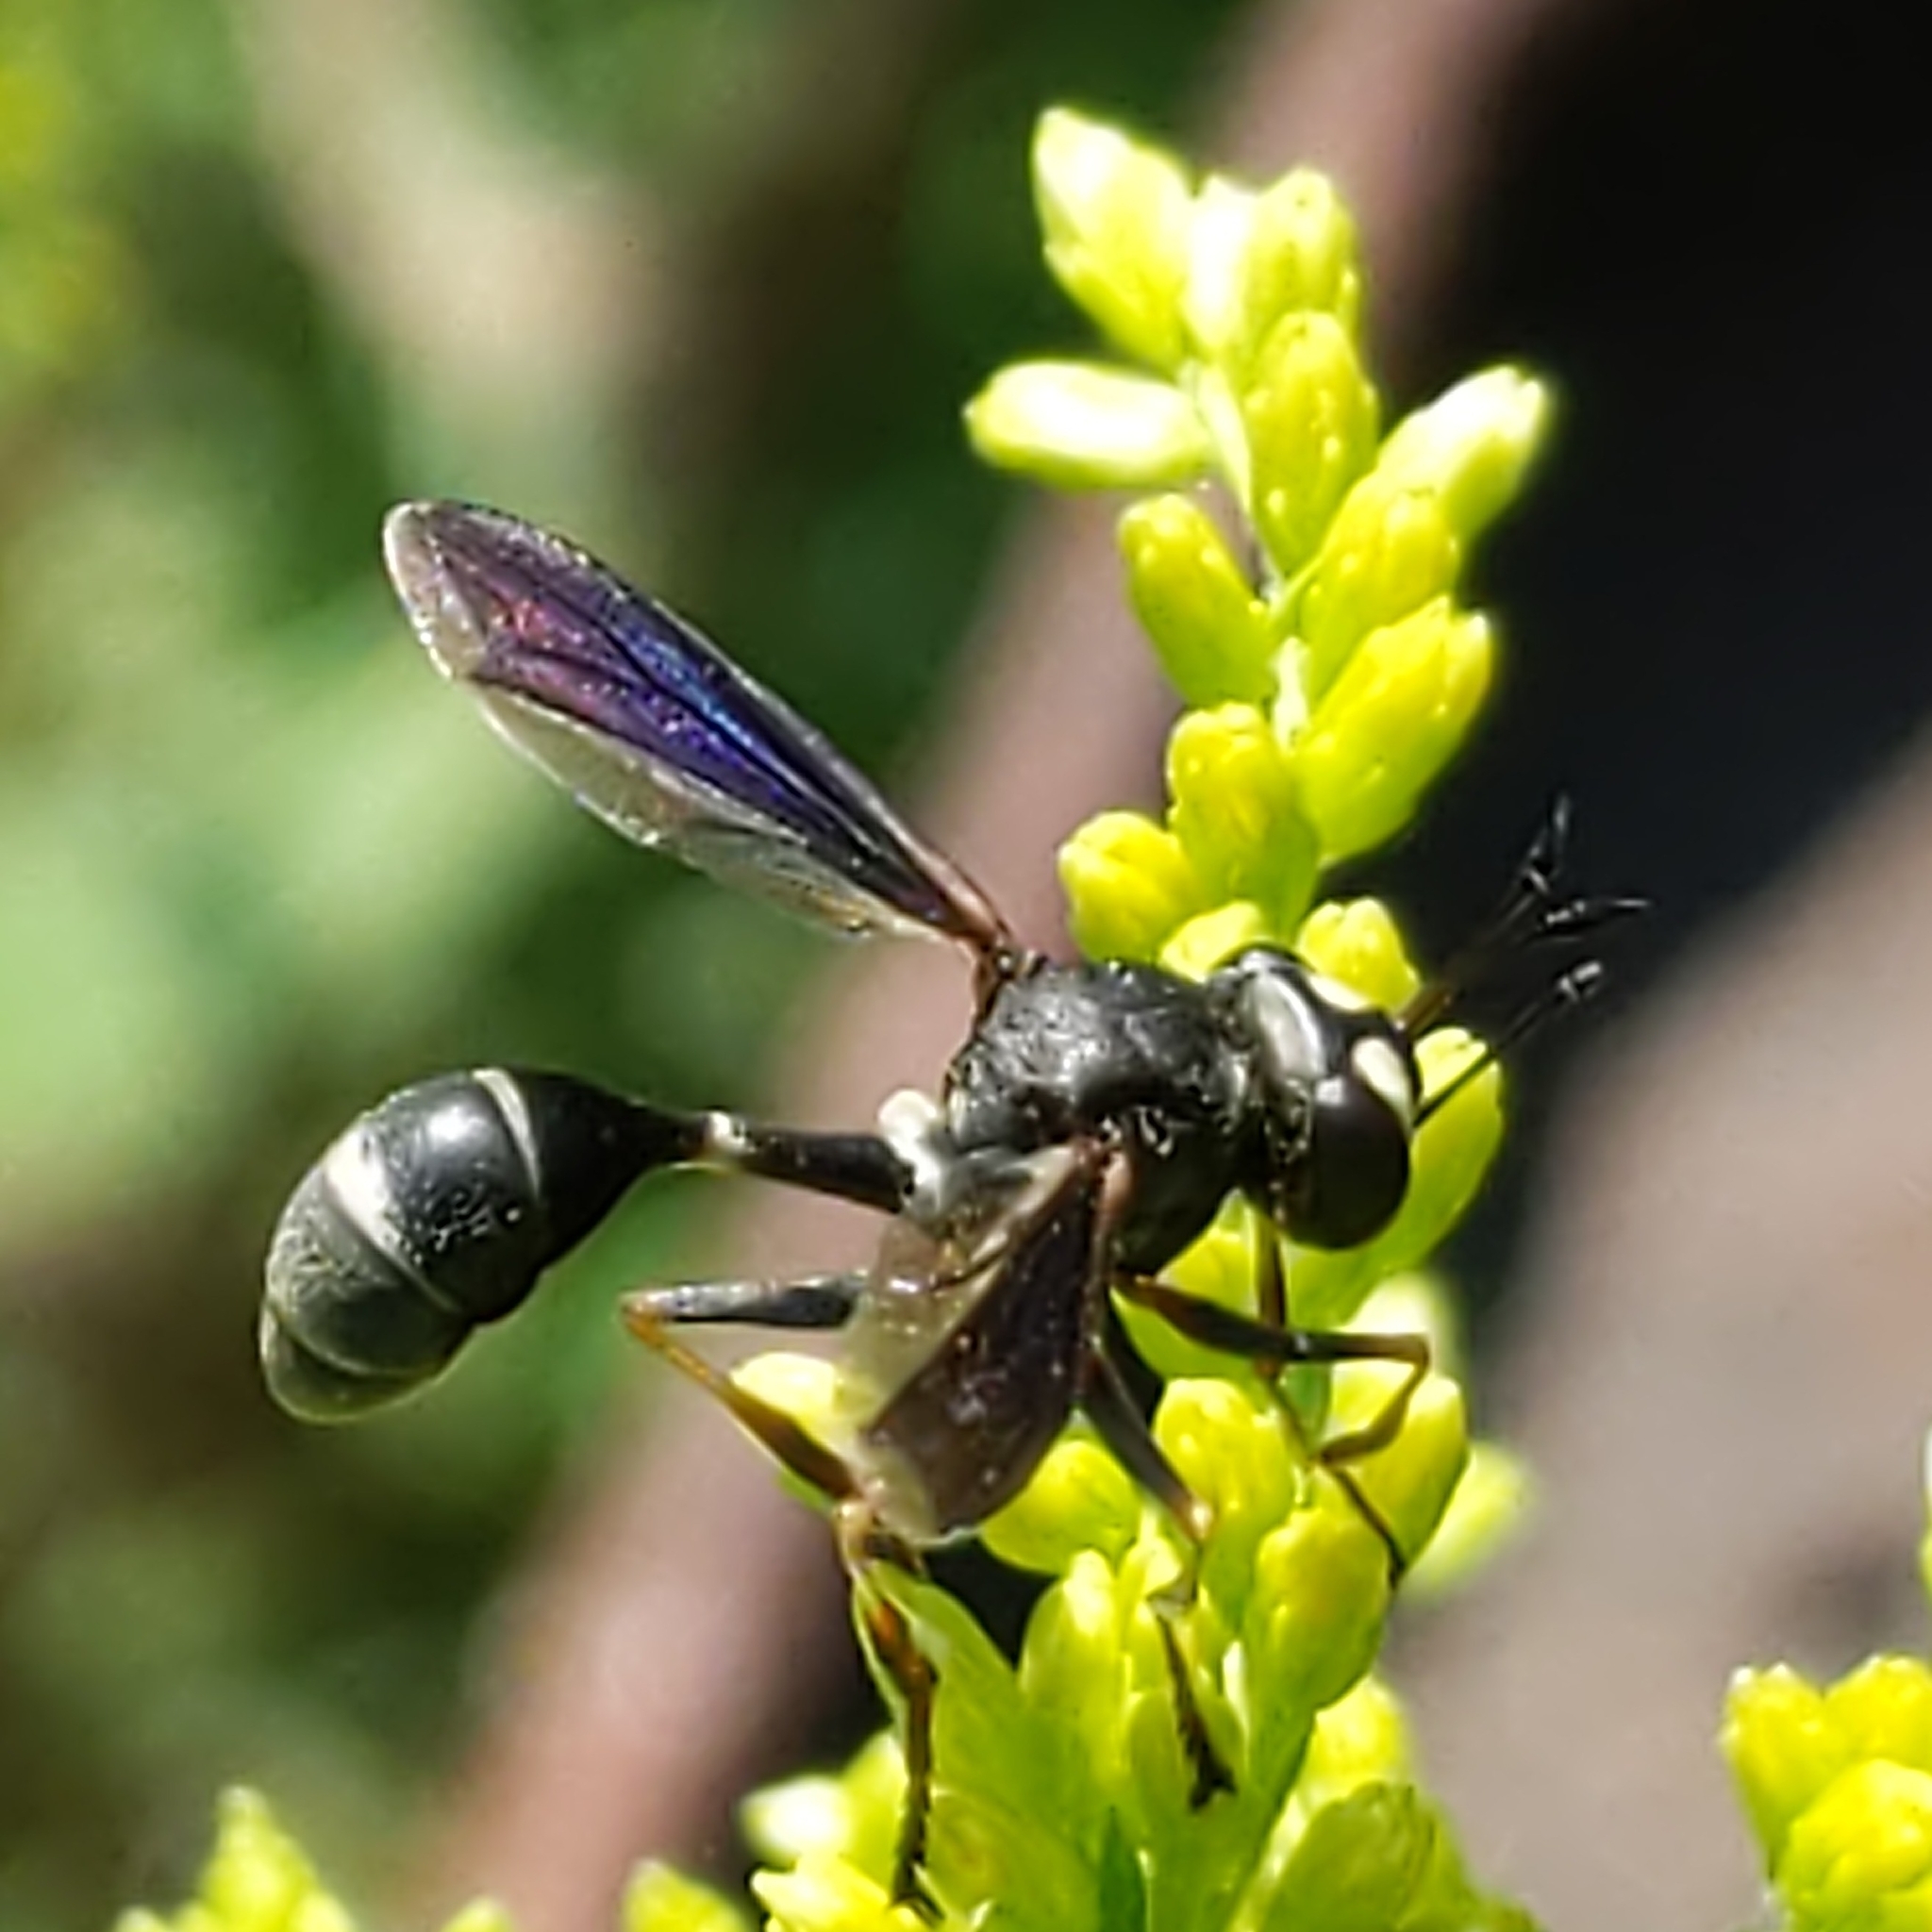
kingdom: Animalia
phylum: Arthropoda
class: Insecta
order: Diptera
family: Conopidae
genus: Physocephala
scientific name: Physocephala tibialis
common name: Common eastern physocephala
